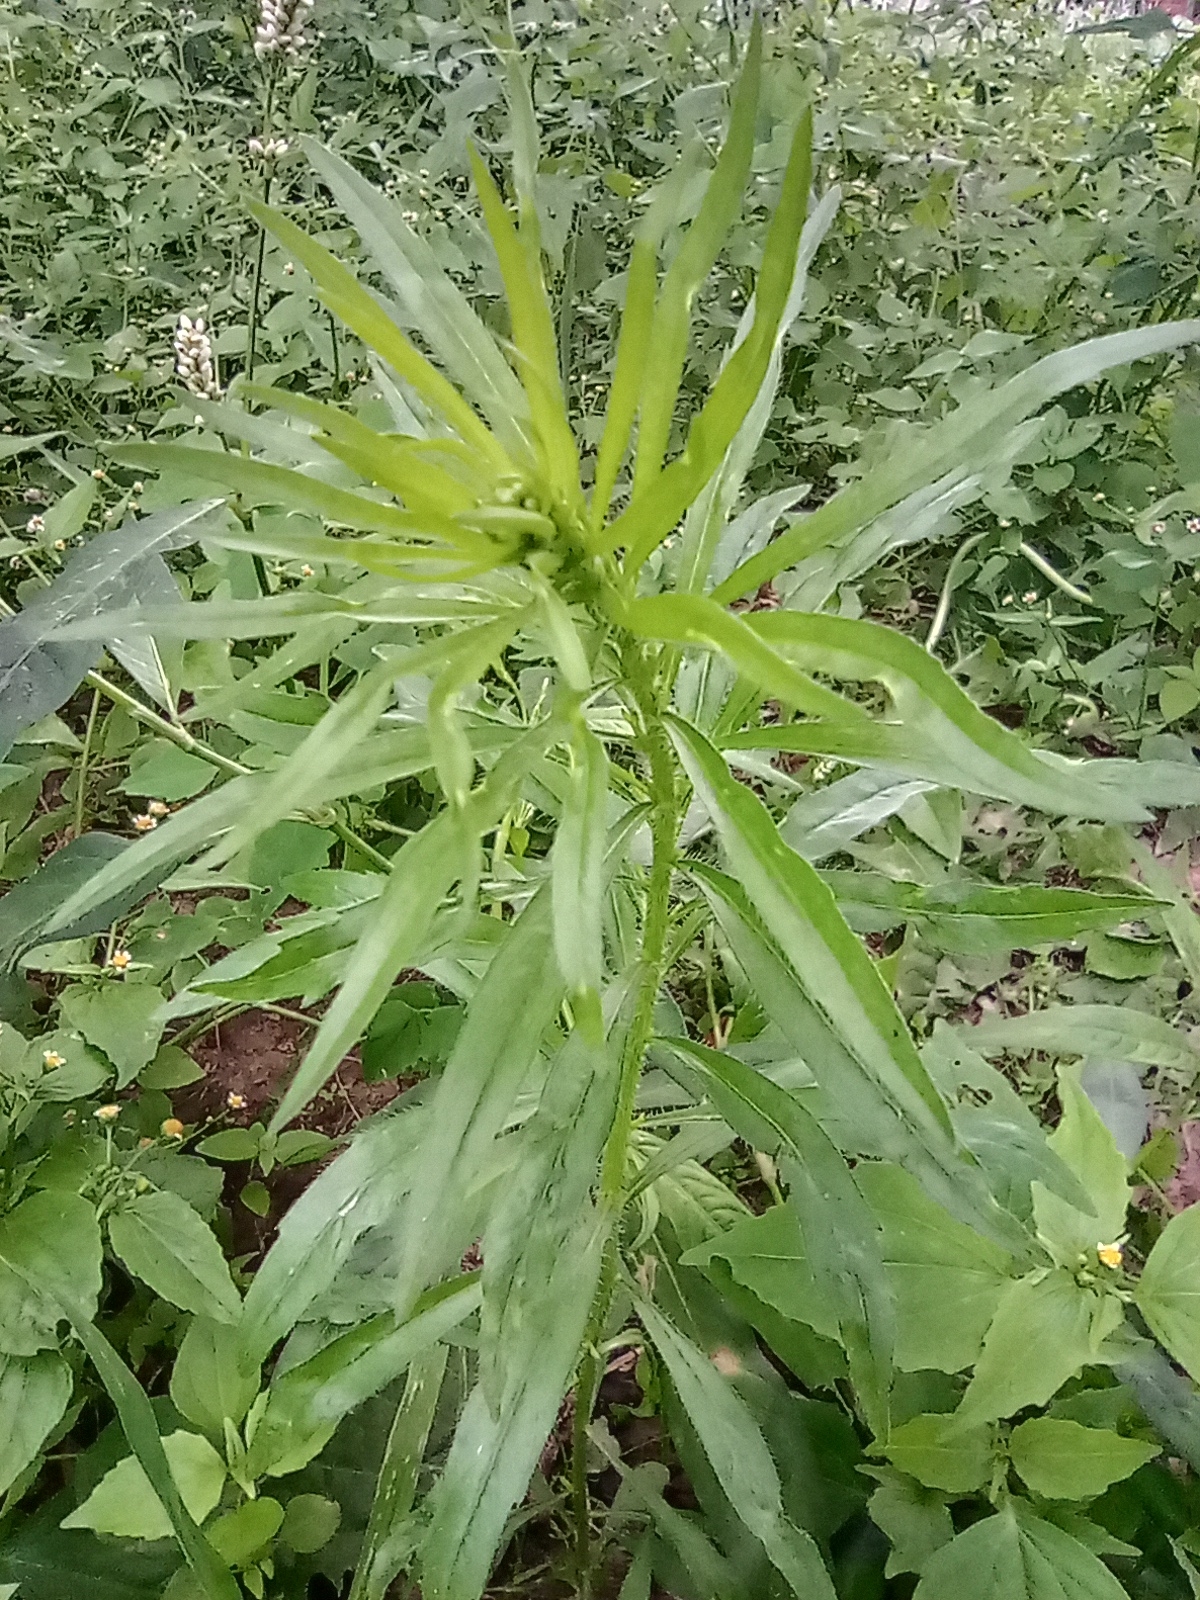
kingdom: Plantae
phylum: Tracheophyta
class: Magnoliopsida
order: Asterales
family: Asteraceae
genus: Erigeron
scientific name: Erigeron canadensis
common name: Canadian fleabane
